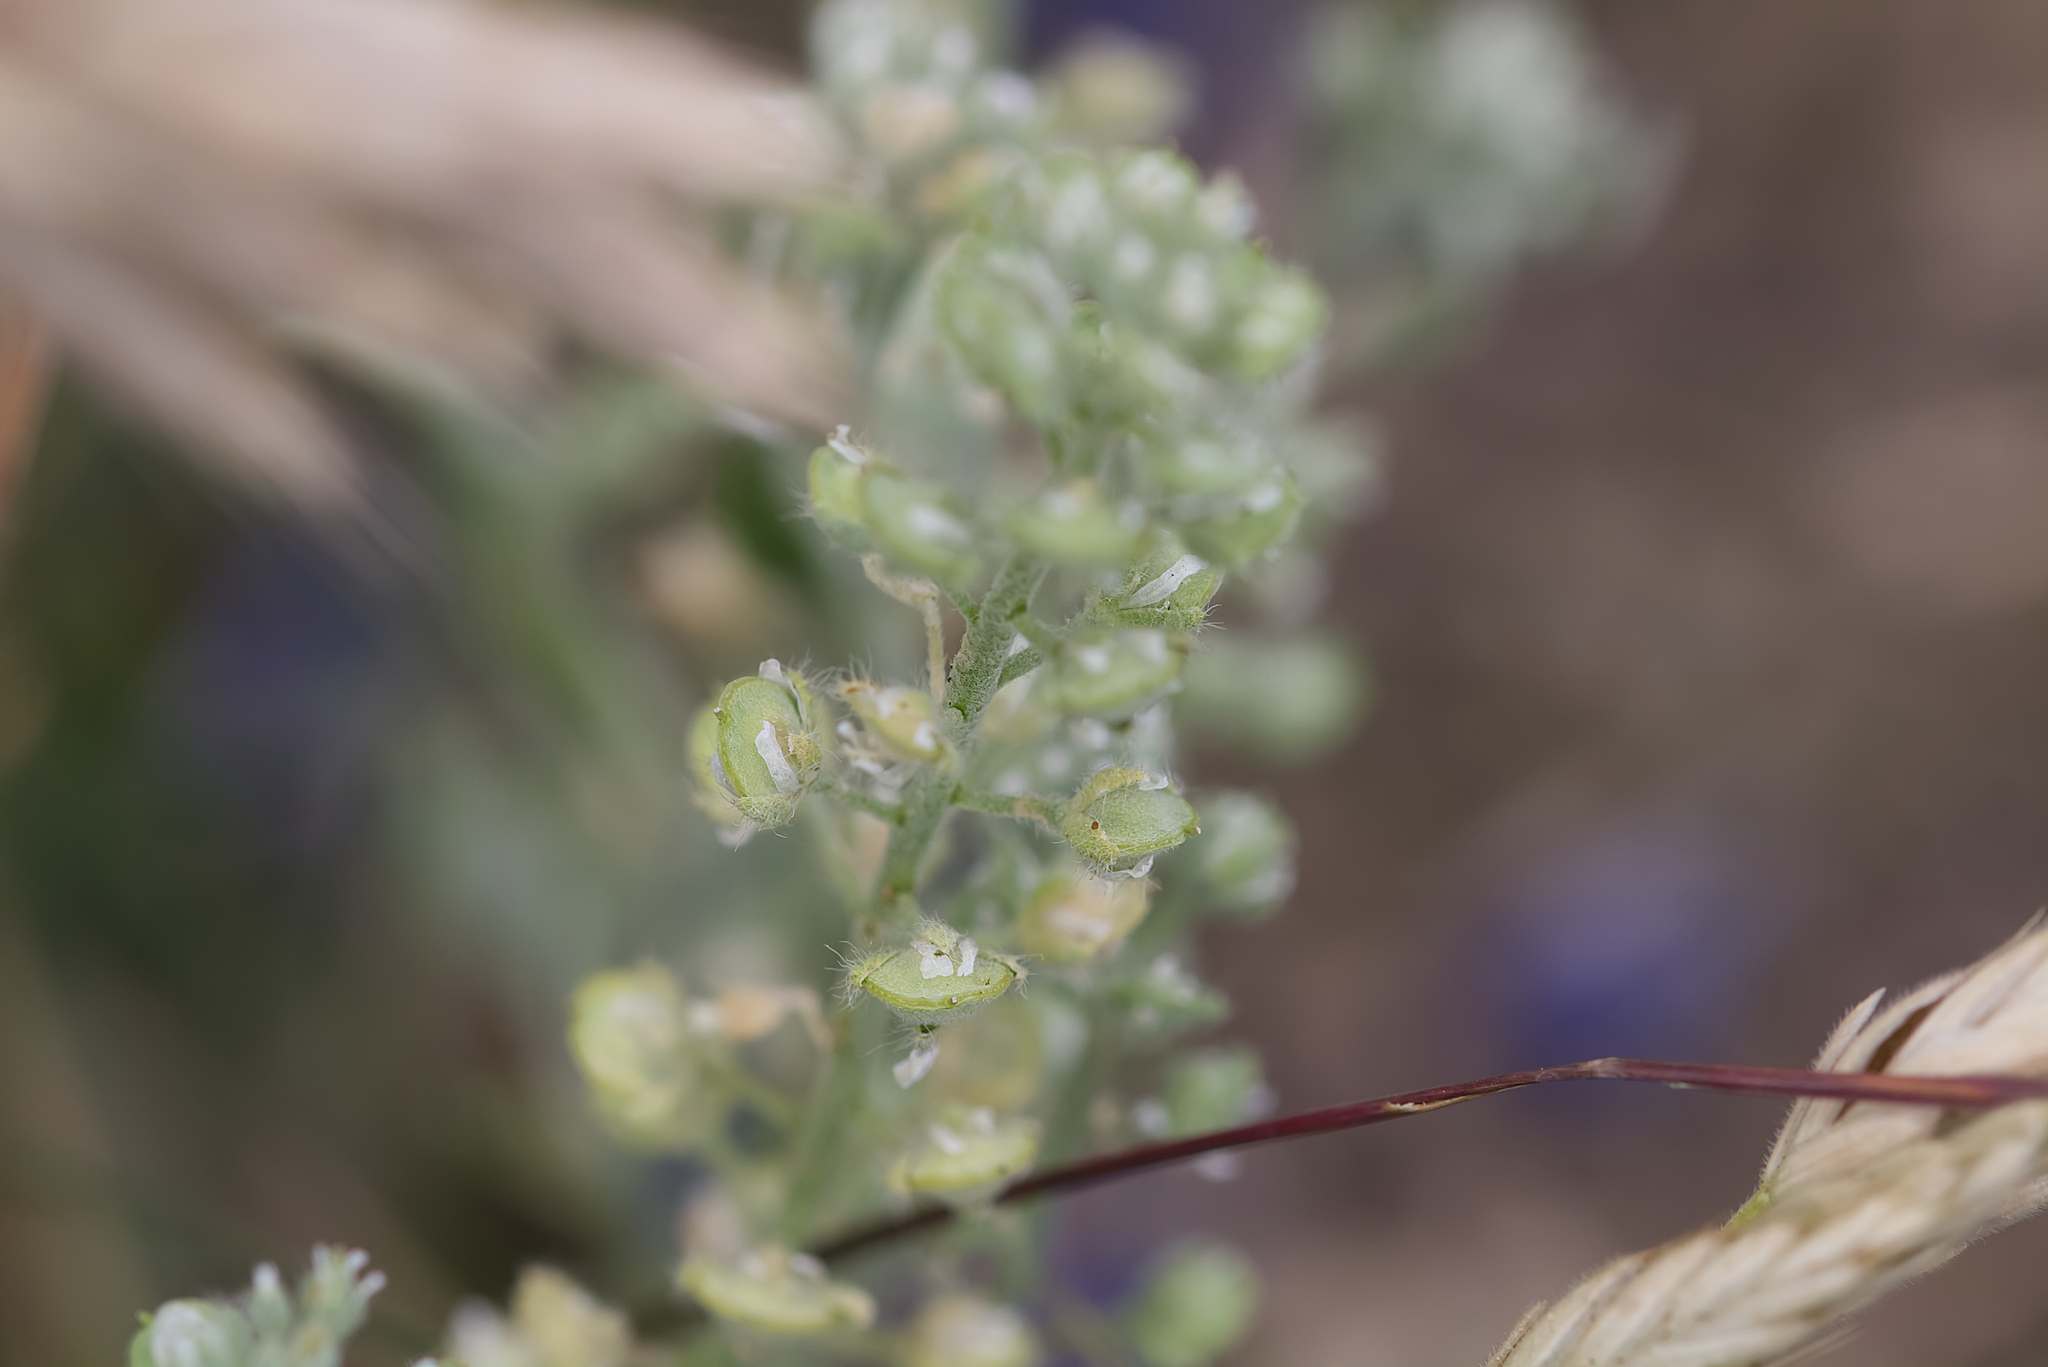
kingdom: Plantae
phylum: Tracheophyta
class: Magnoliopsida
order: Brassicales
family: Brassicaceae
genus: Alyssum
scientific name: Alyssum alyssoides
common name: Small alison
